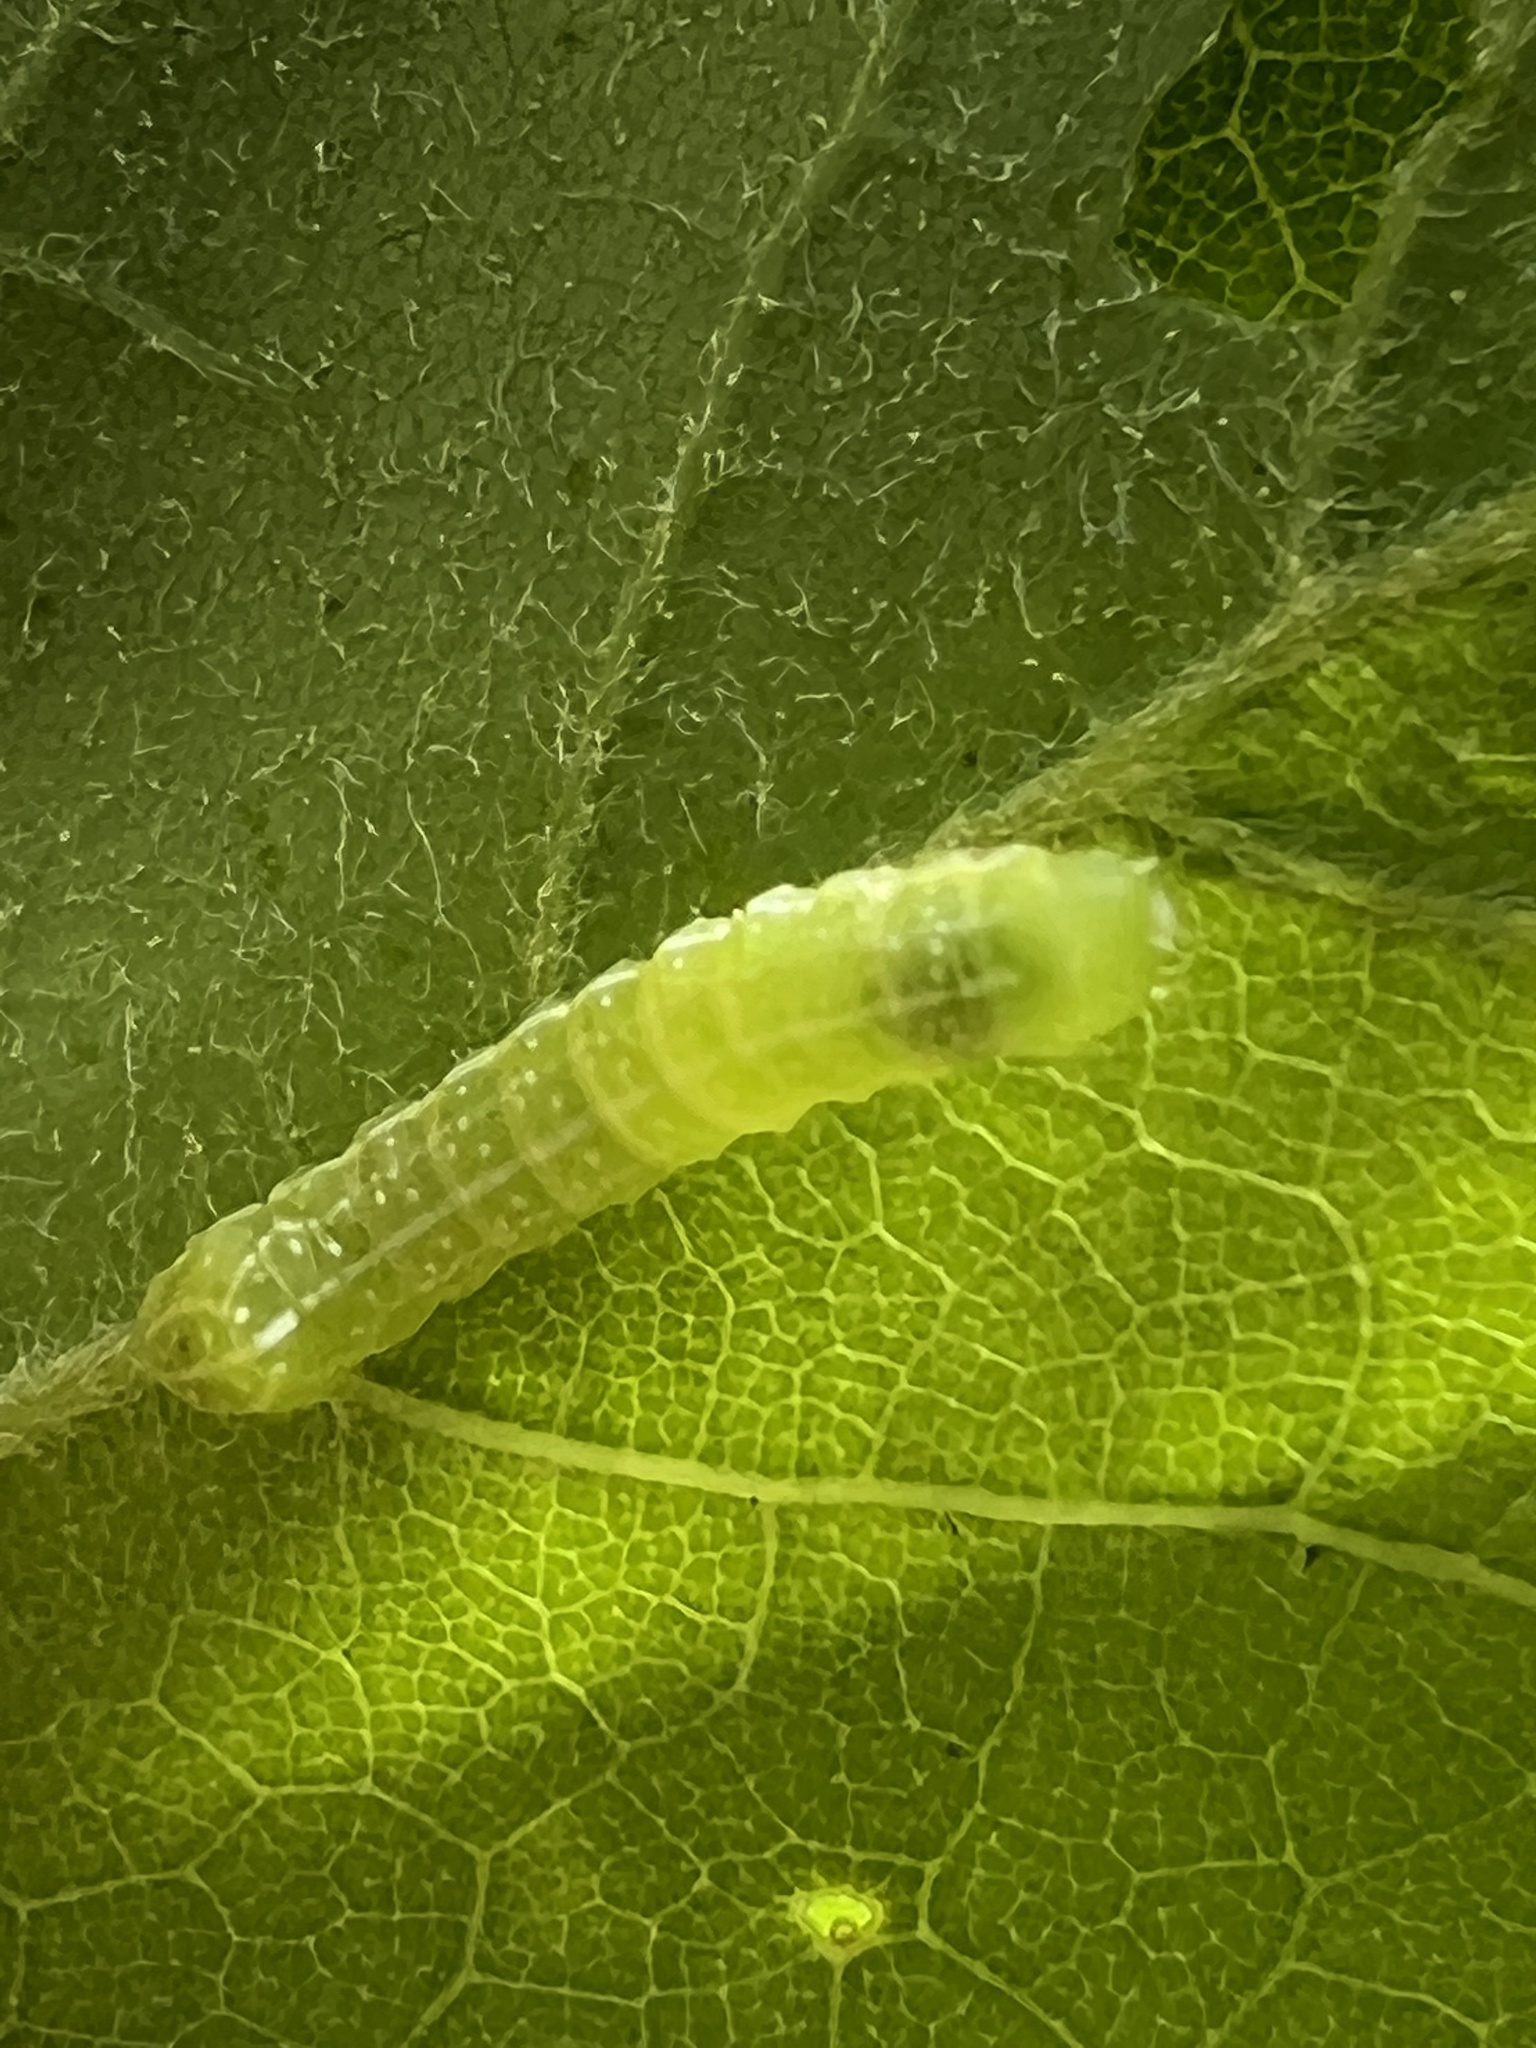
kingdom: Animalia
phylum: Arthropoda
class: Insecta
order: Lepidoptera
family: Noctuidae
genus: Amphipyra
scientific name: Amphipyra pyramidoides
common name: American copper underwing
